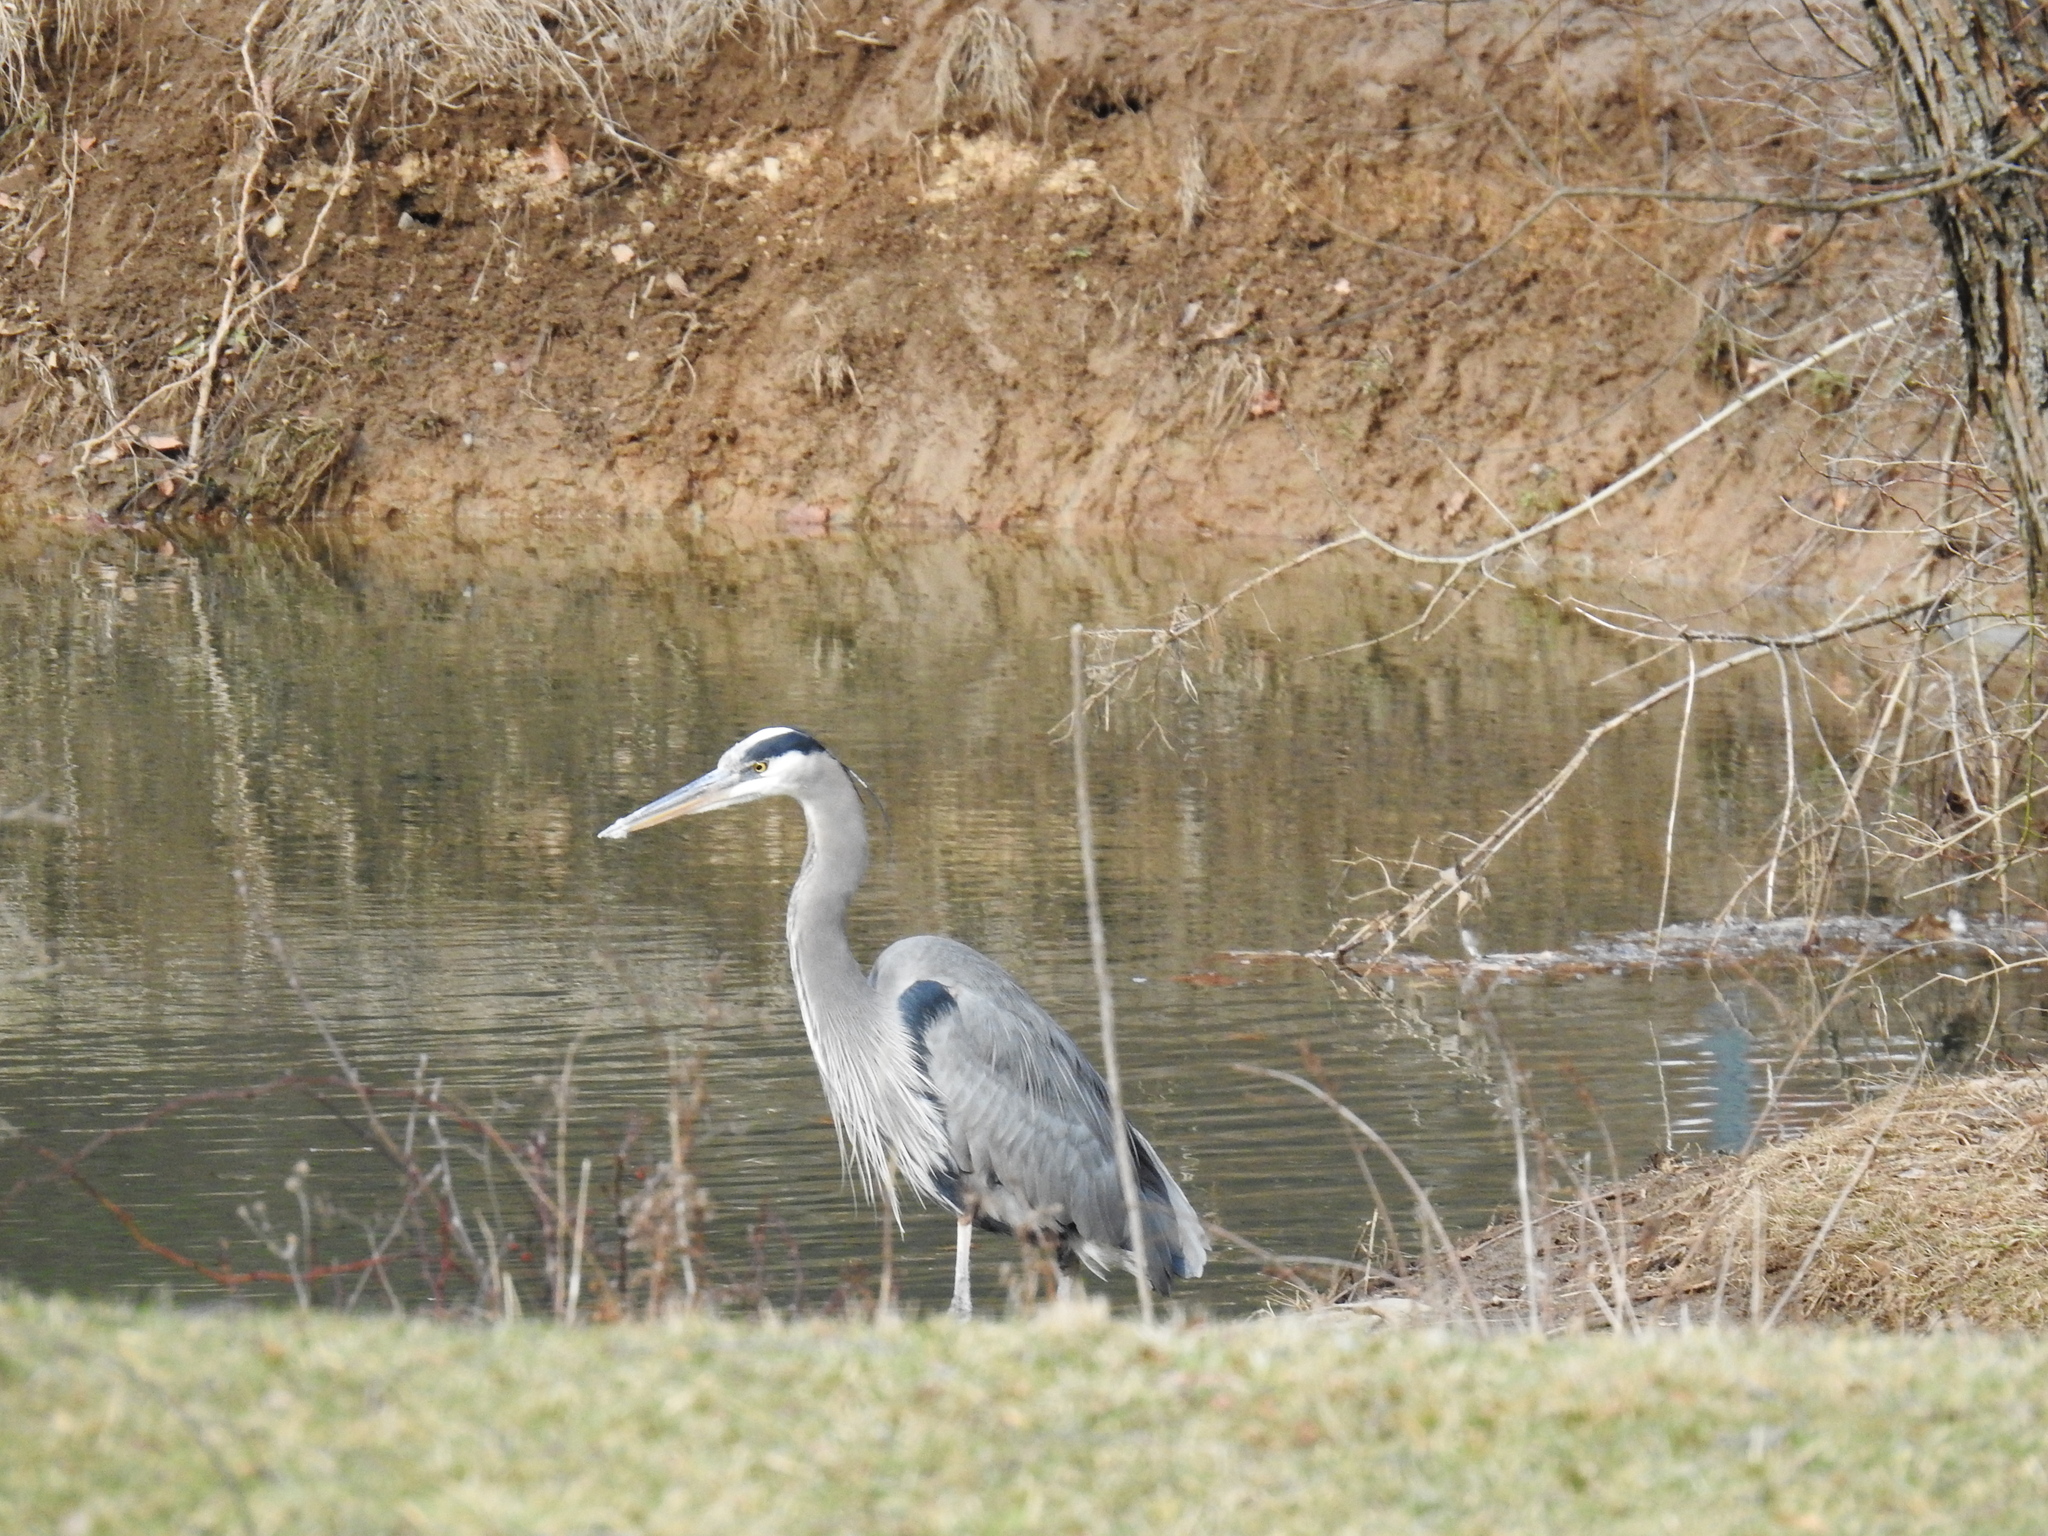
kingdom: Animalia
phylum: Chordata
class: Aves
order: Pelecaniformes
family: Ardeidae
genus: Ardea
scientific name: Ardea herodias
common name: Great blue heron
